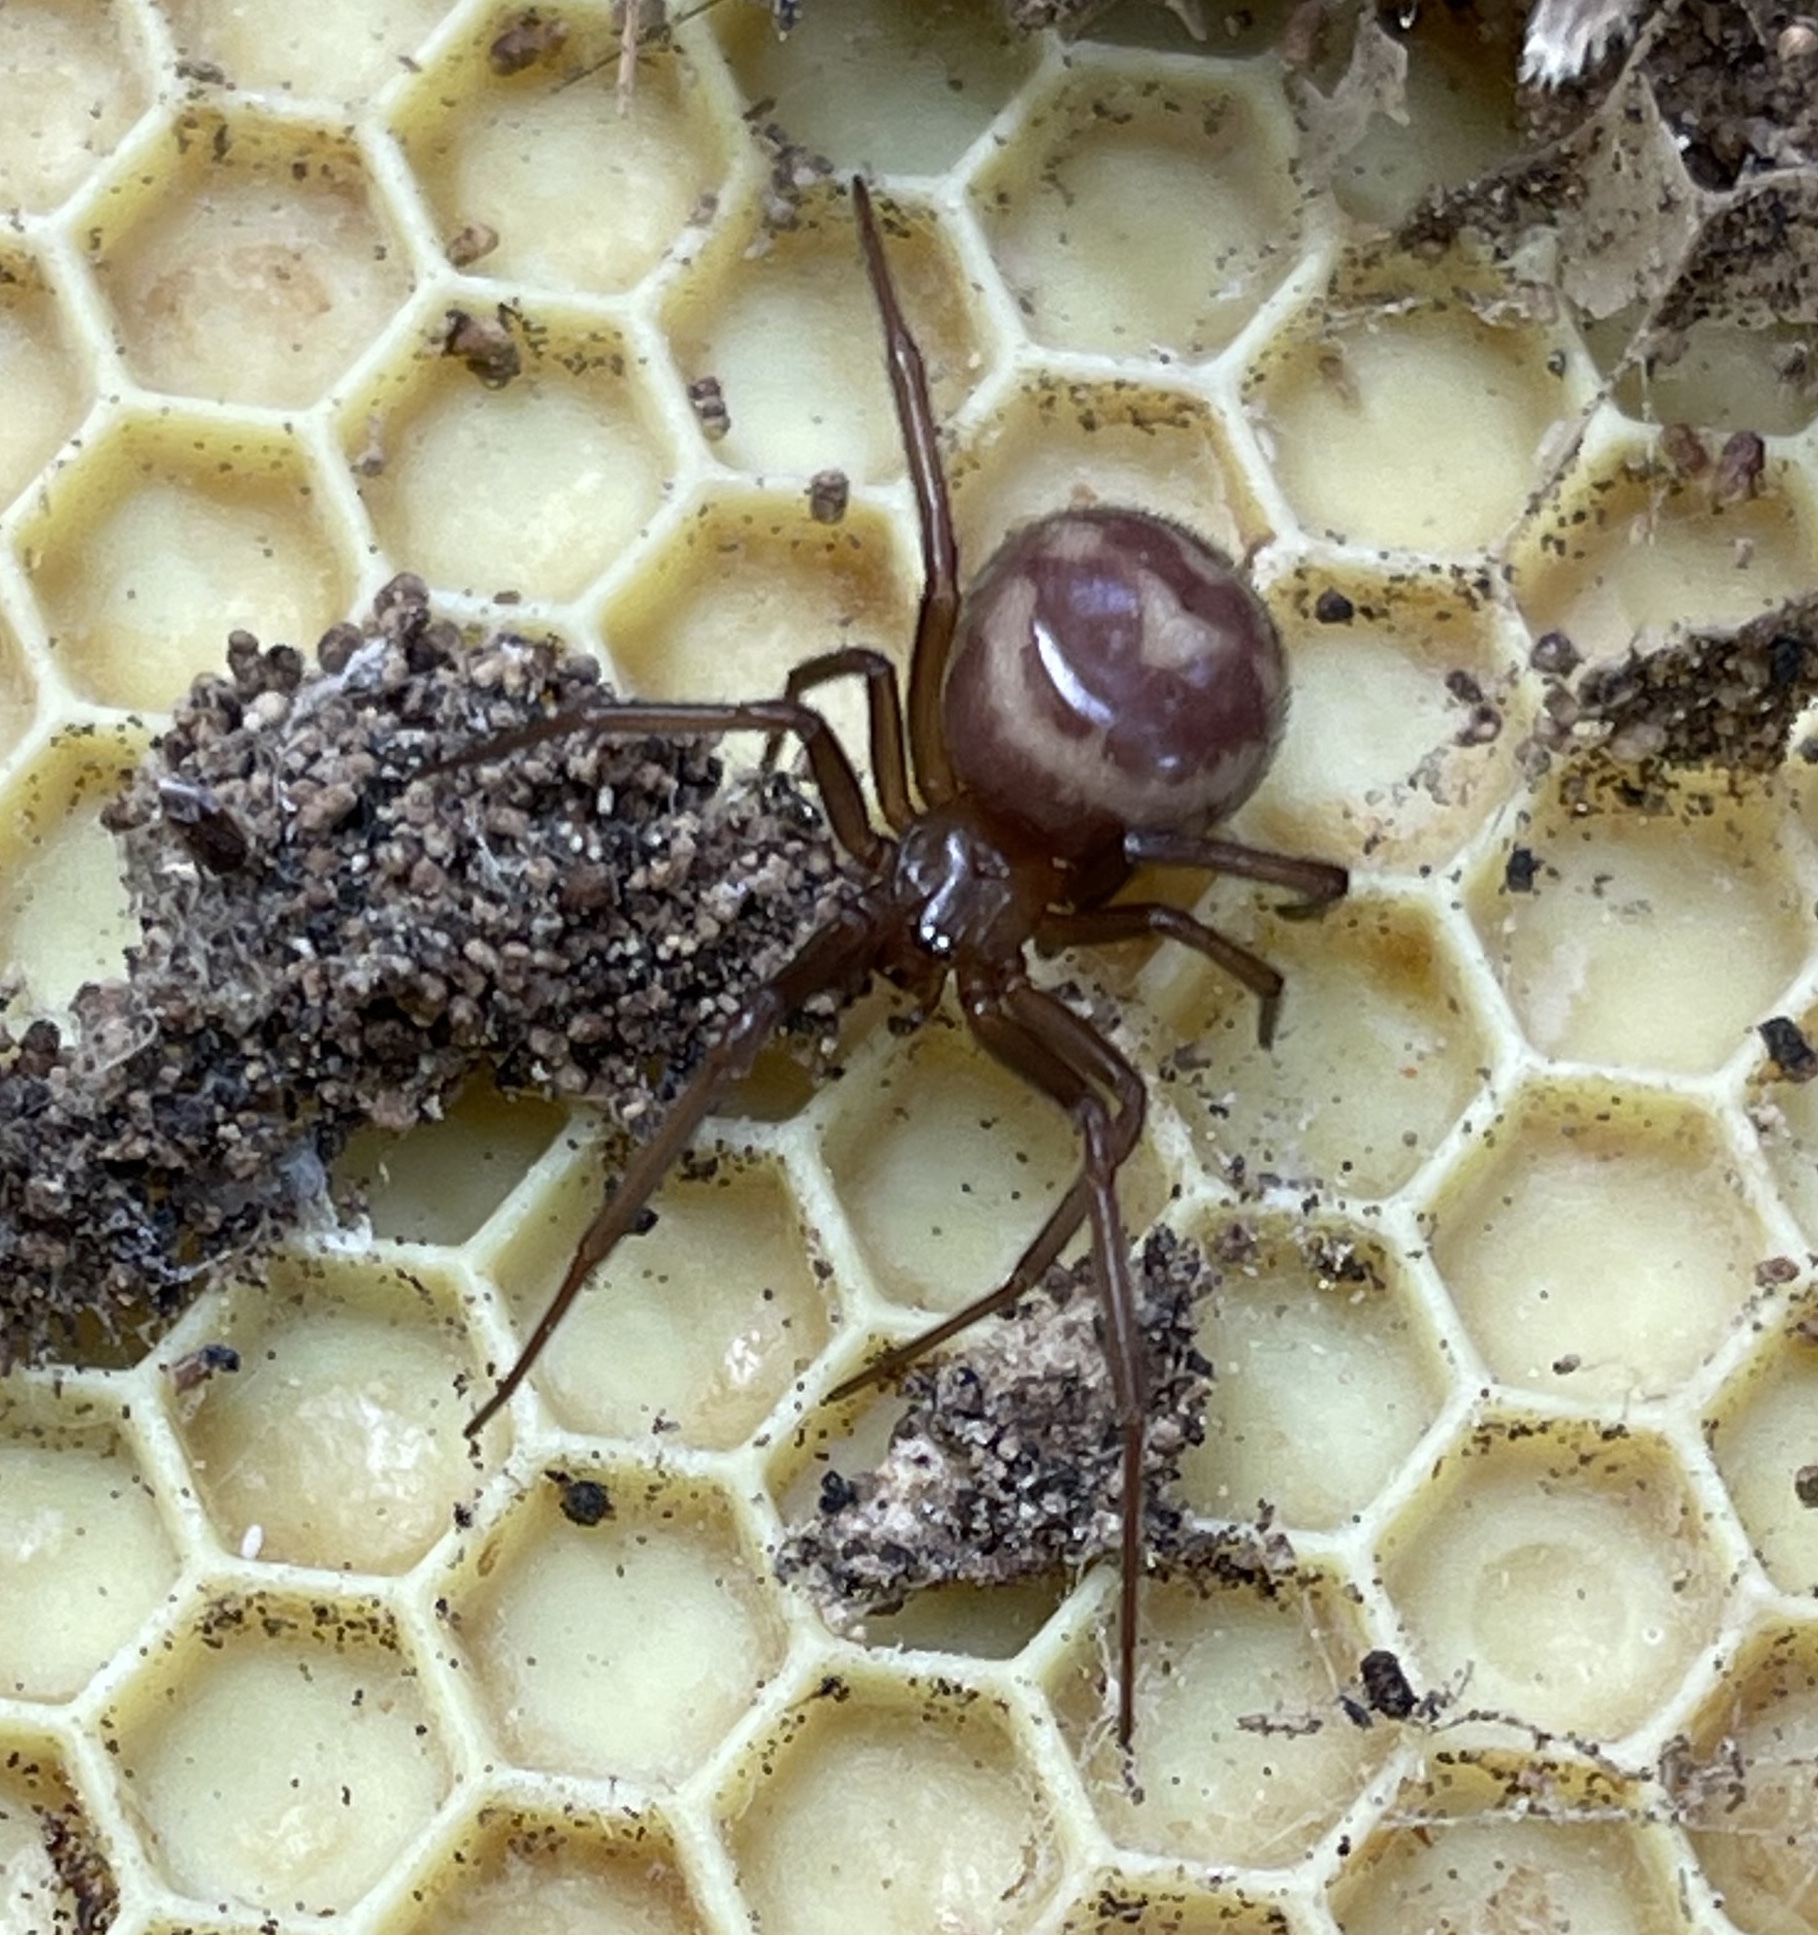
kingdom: Animalia
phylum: Arthropoda
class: Arachnida
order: Araneae
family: Theridiidae
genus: Steatoda
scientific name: Steatoda grossa
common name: False black widow
